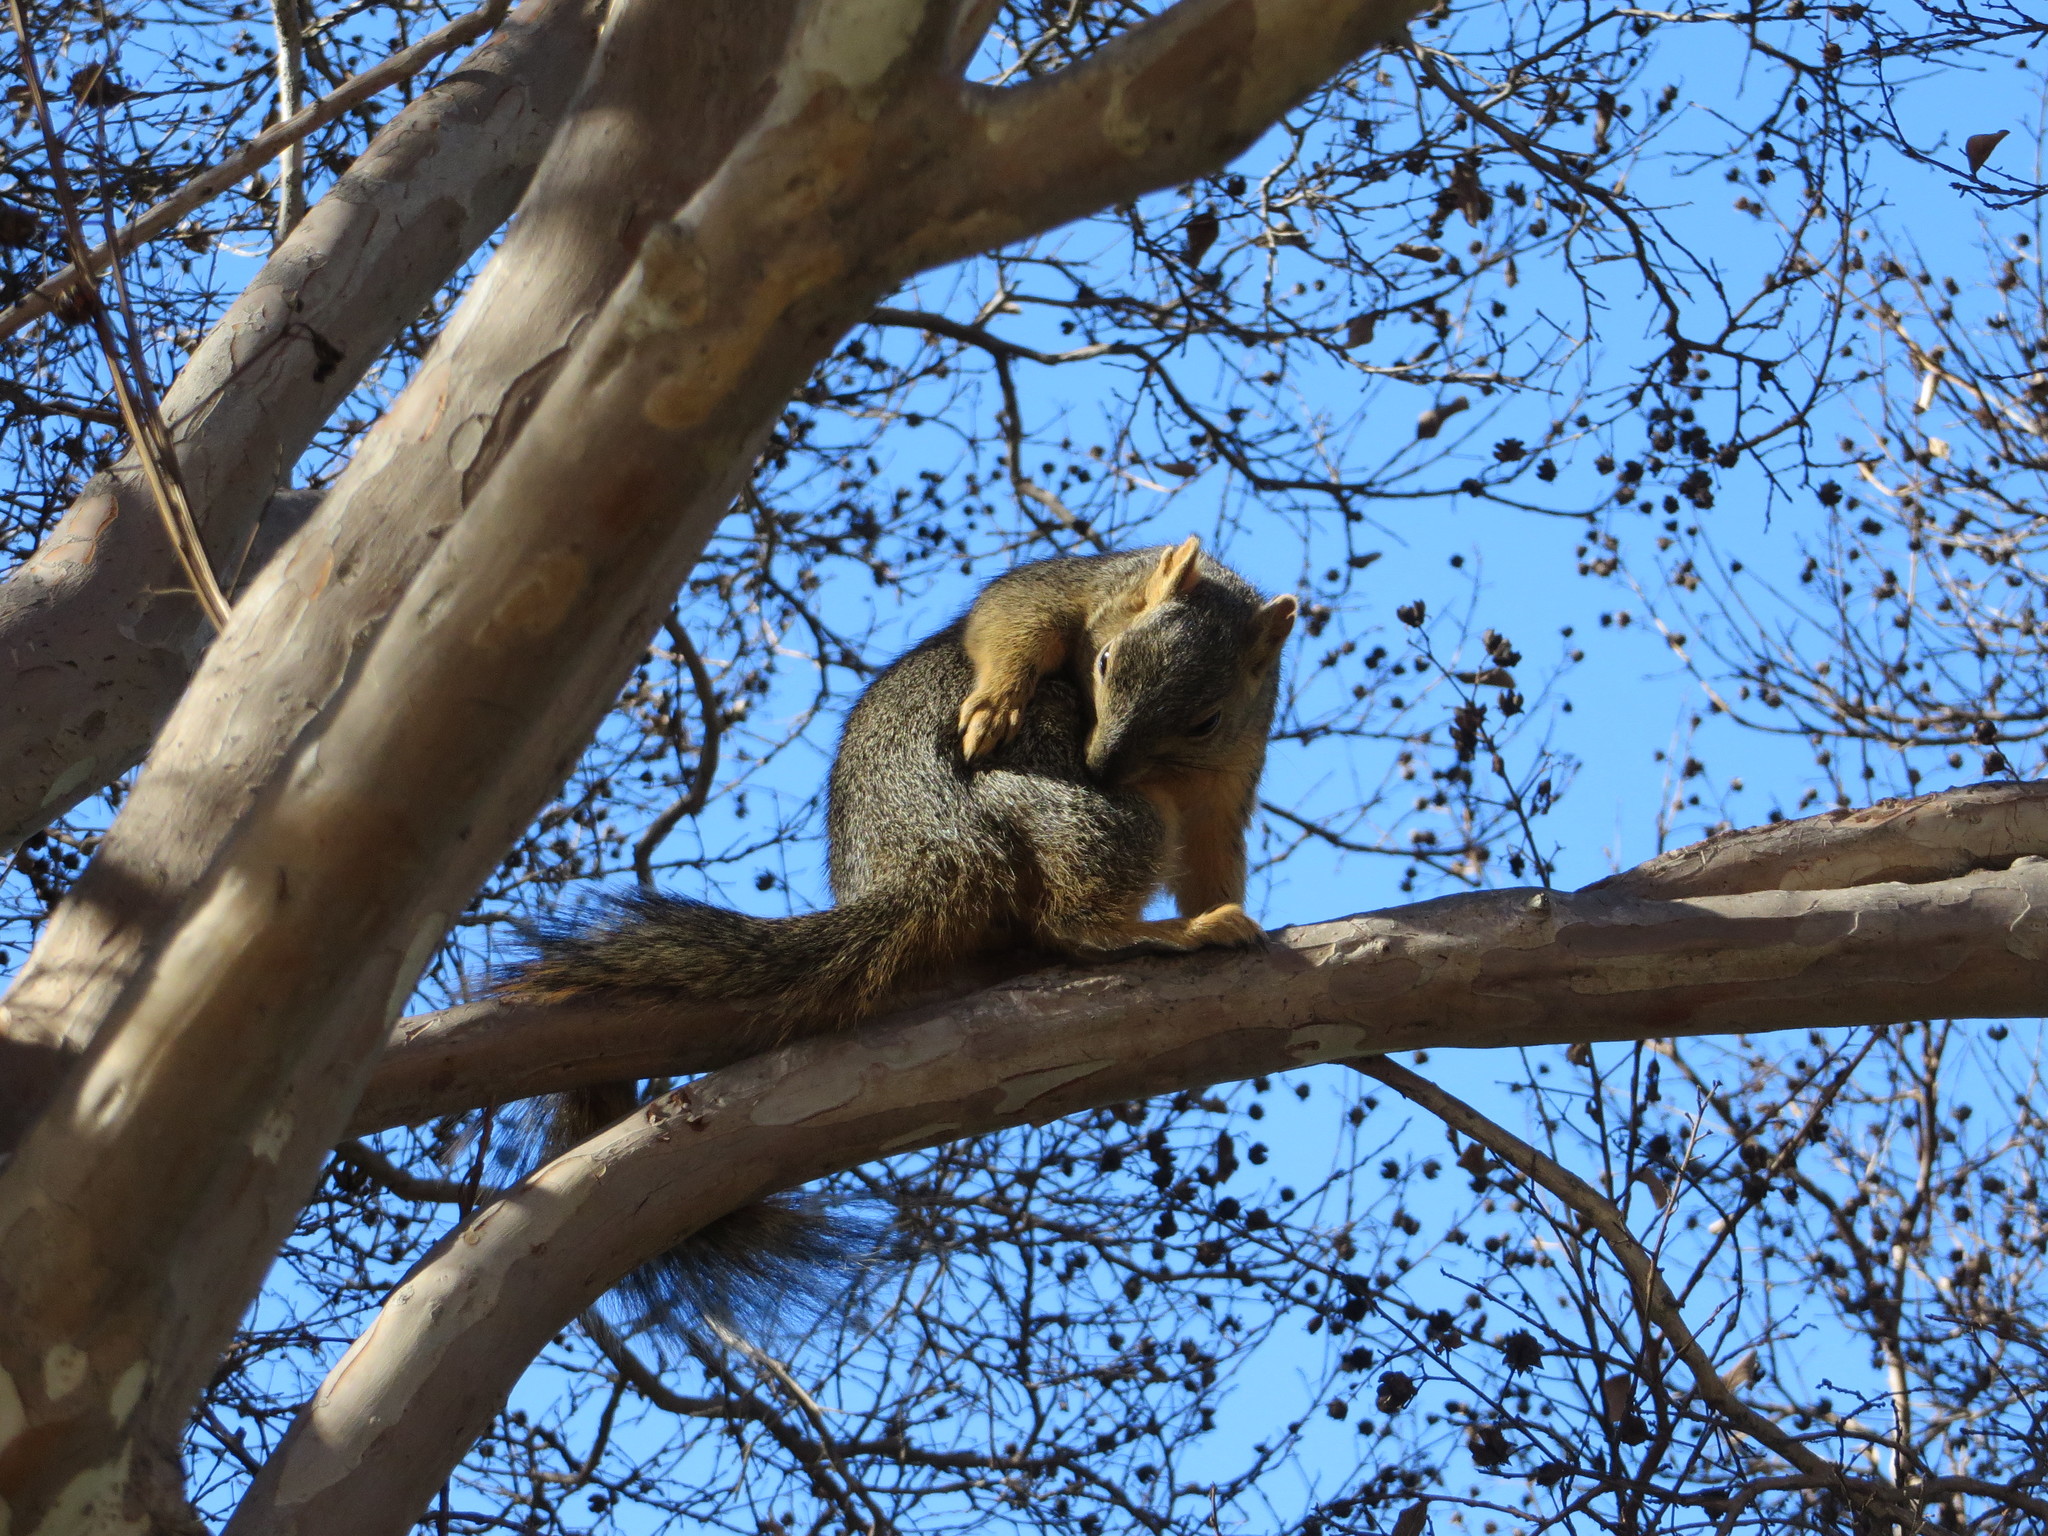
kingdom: Animalia
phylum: Chordata
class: Mammalia
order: Rodentia
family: Sciuridae
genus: Sciurus
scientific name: Sciurus niger
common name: Fox squirrel
